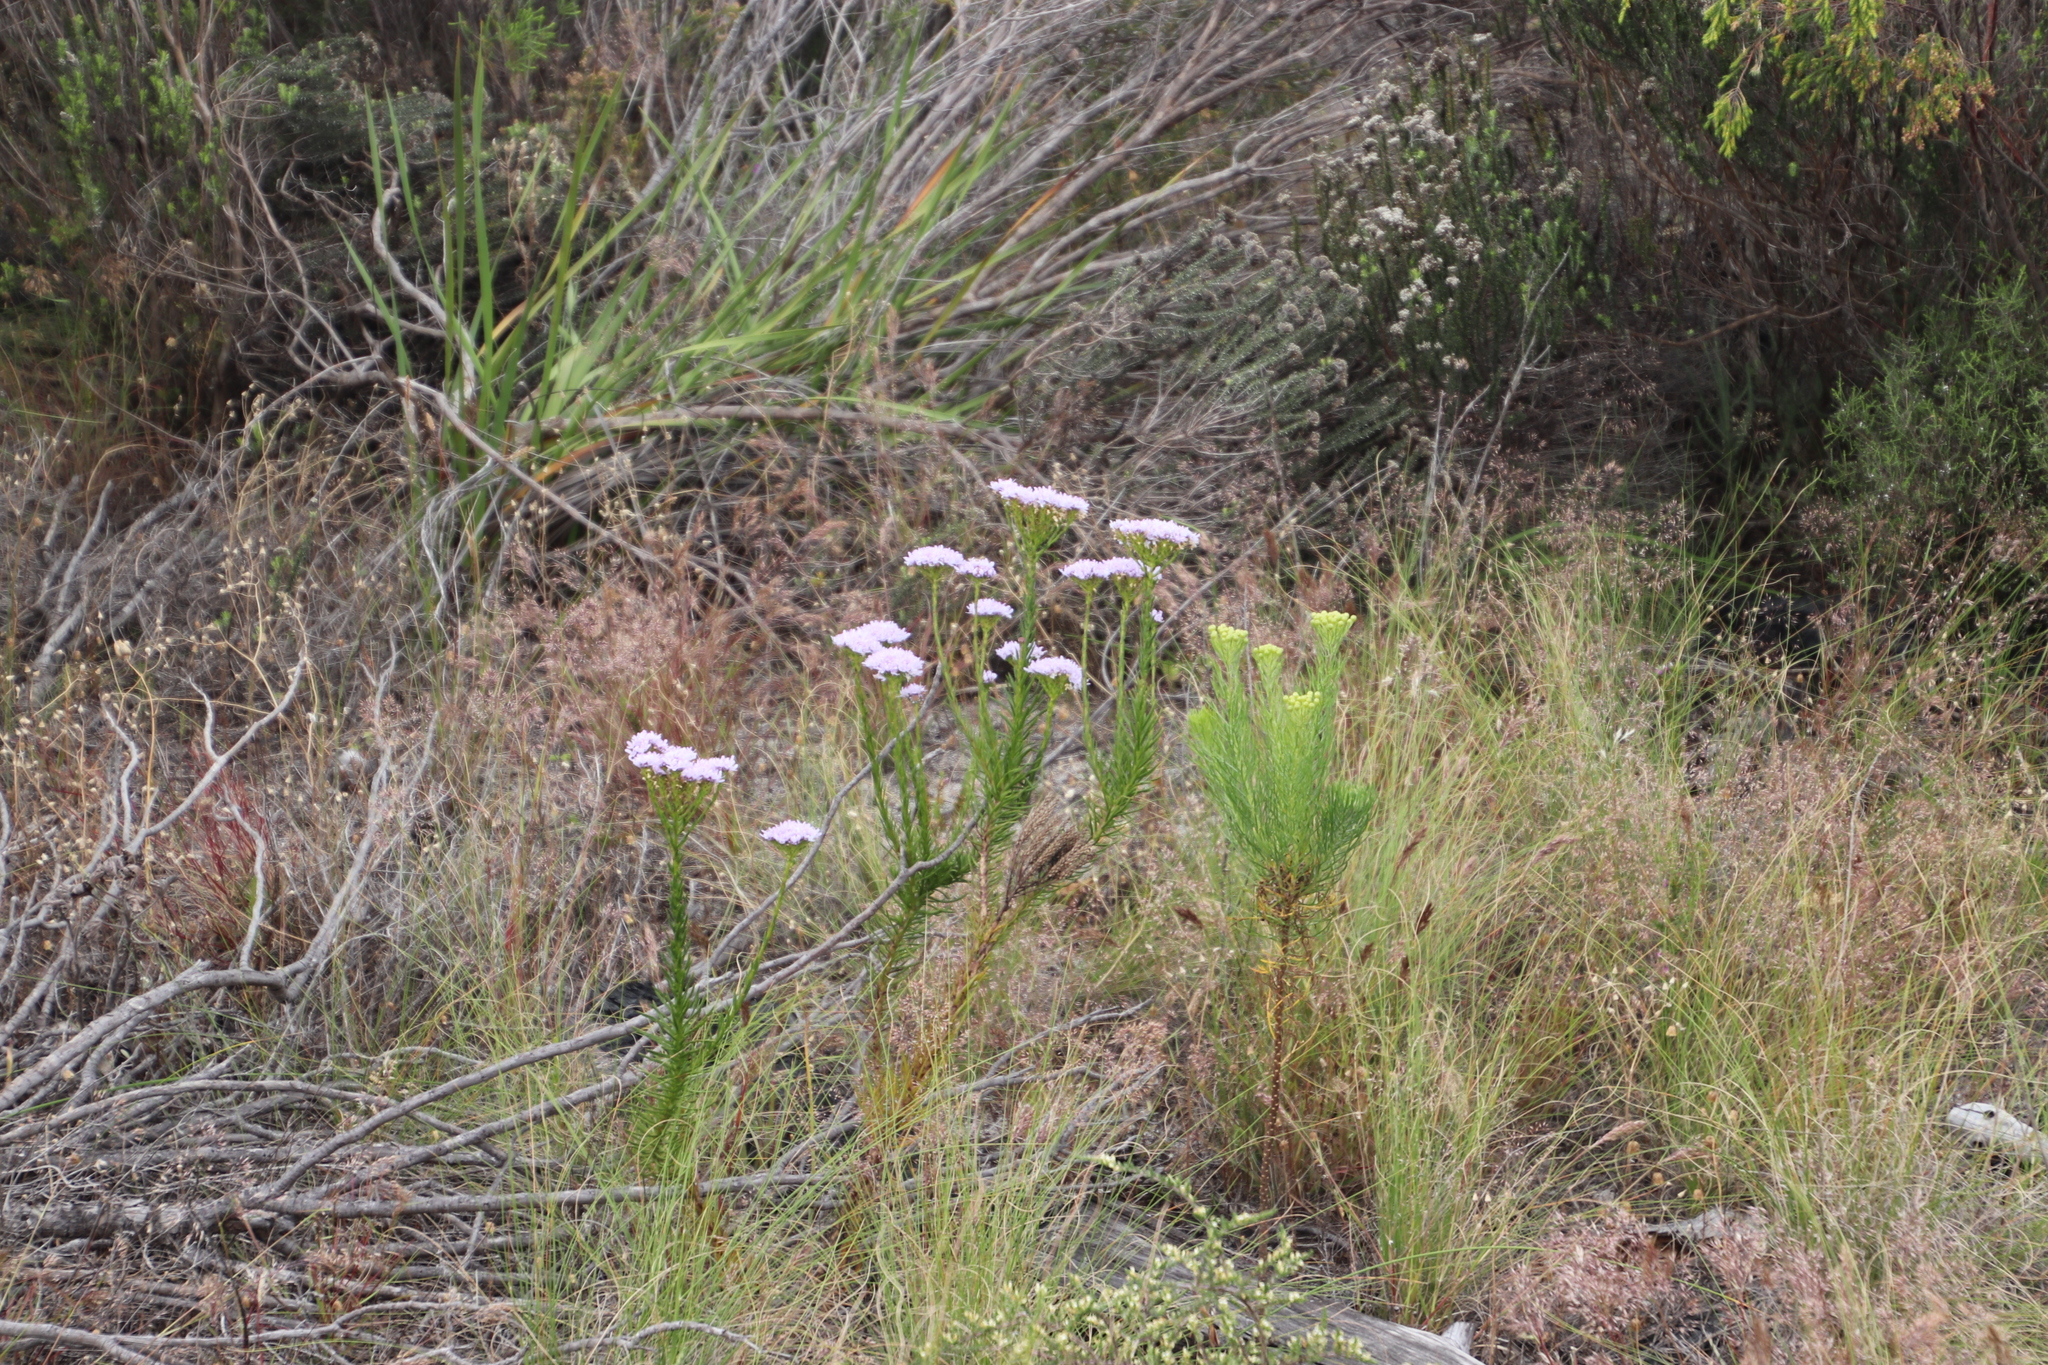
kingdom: Plantae
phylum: Tracheophyta
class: Magnoliopsida
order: Lamiales
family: Scrophulariaceae
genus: Pseudoselago
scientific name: Pseudoselago spuria
